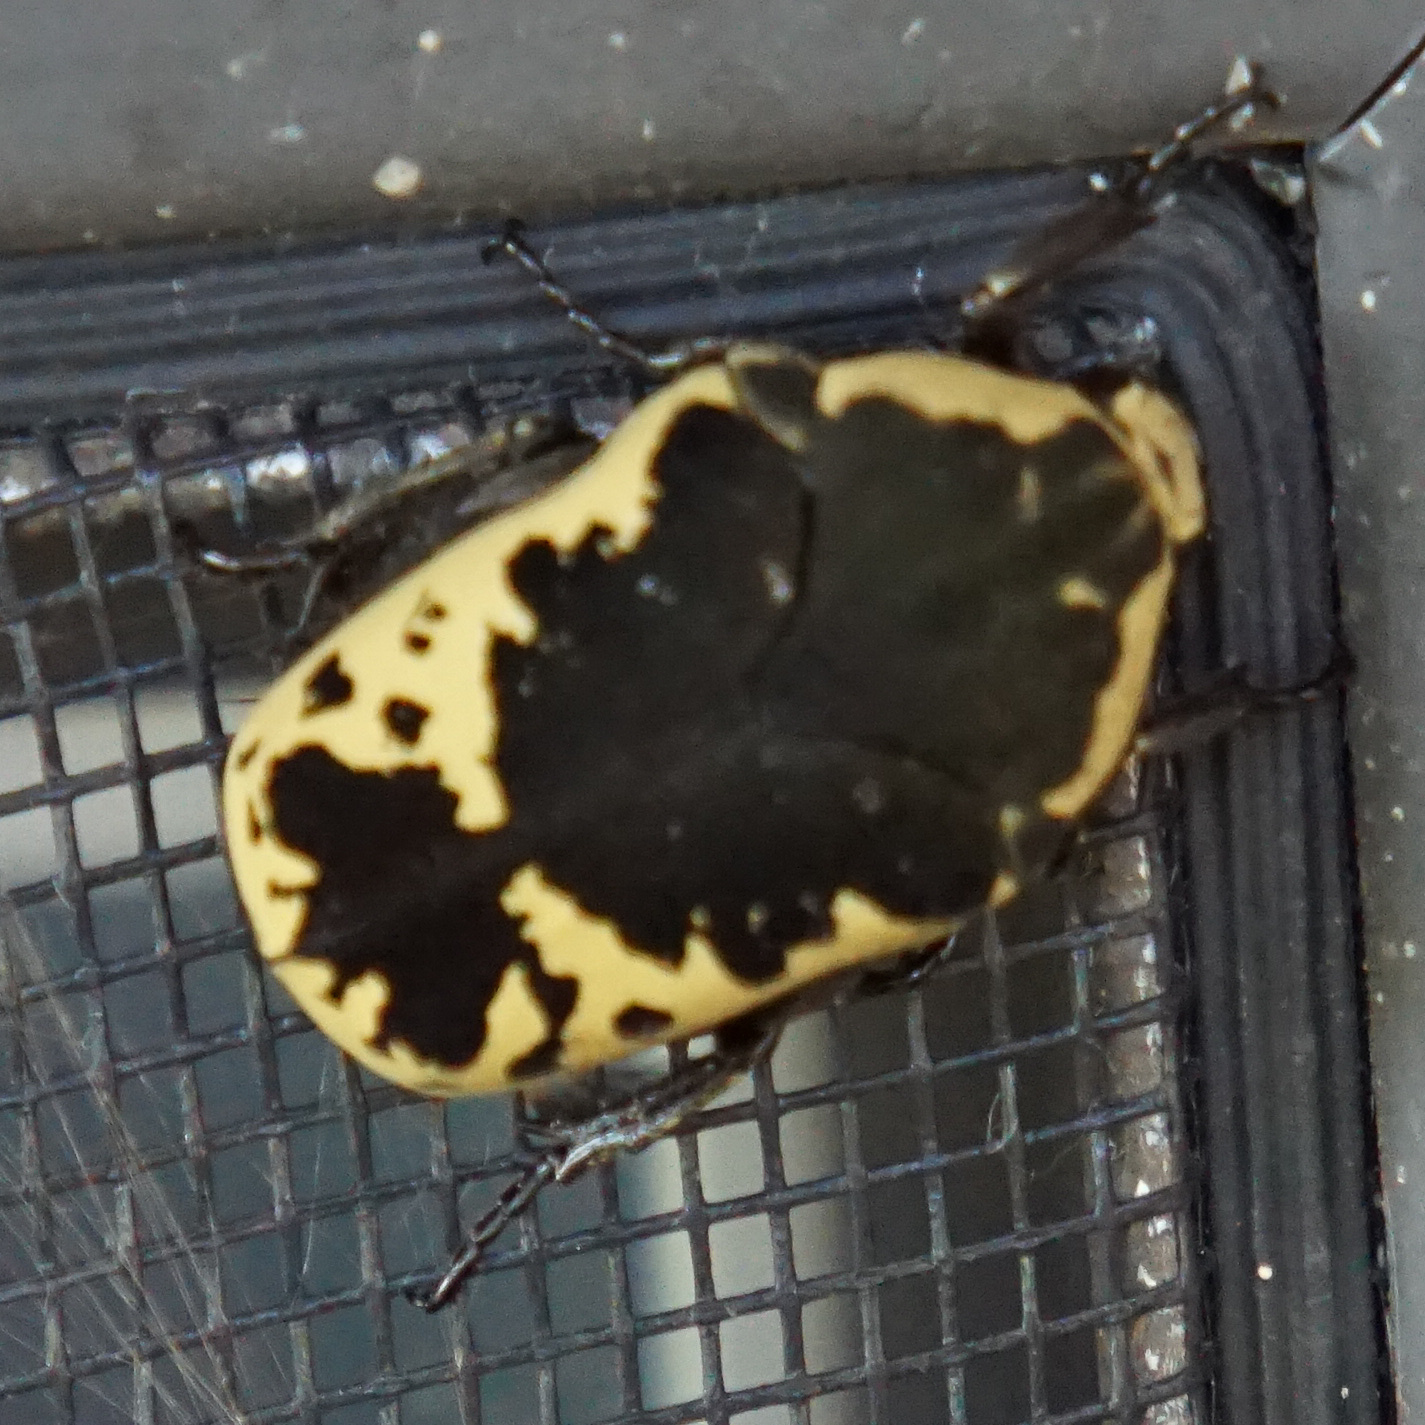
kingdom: Animalia
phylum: Arthropoda
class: Insecta
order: Coleoptera
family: Scarabaeidae
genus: Gymnetis
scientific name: Gymnetis thula
